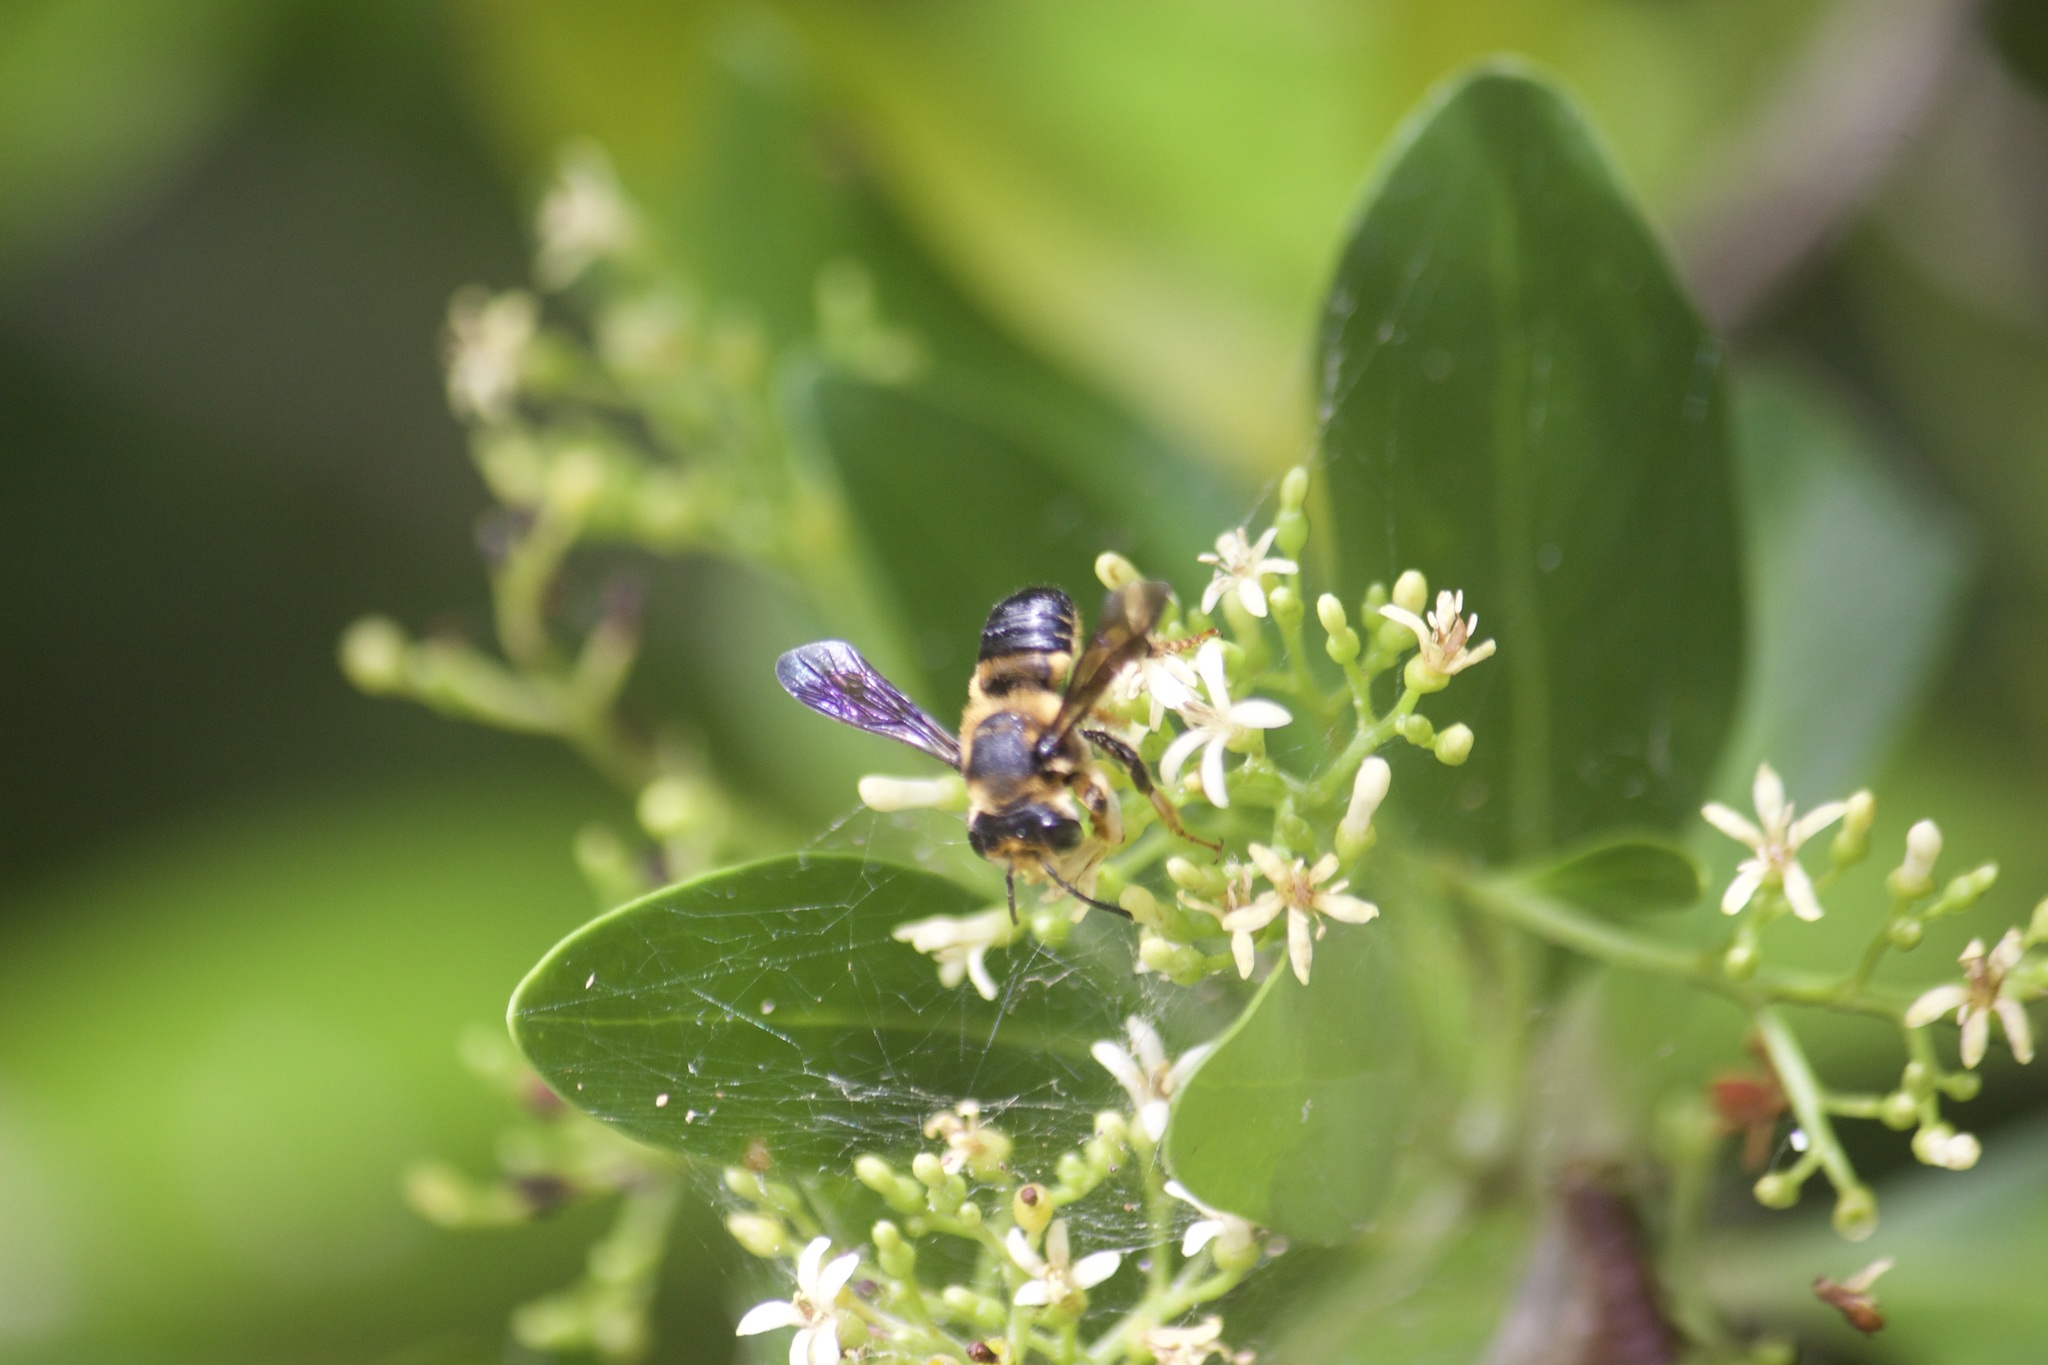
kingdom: Animalia
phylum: Arthropoda
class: Insecta
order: Hymenoptera
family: Megachilidae
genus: Megachile
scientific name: Megachile bahamensis
